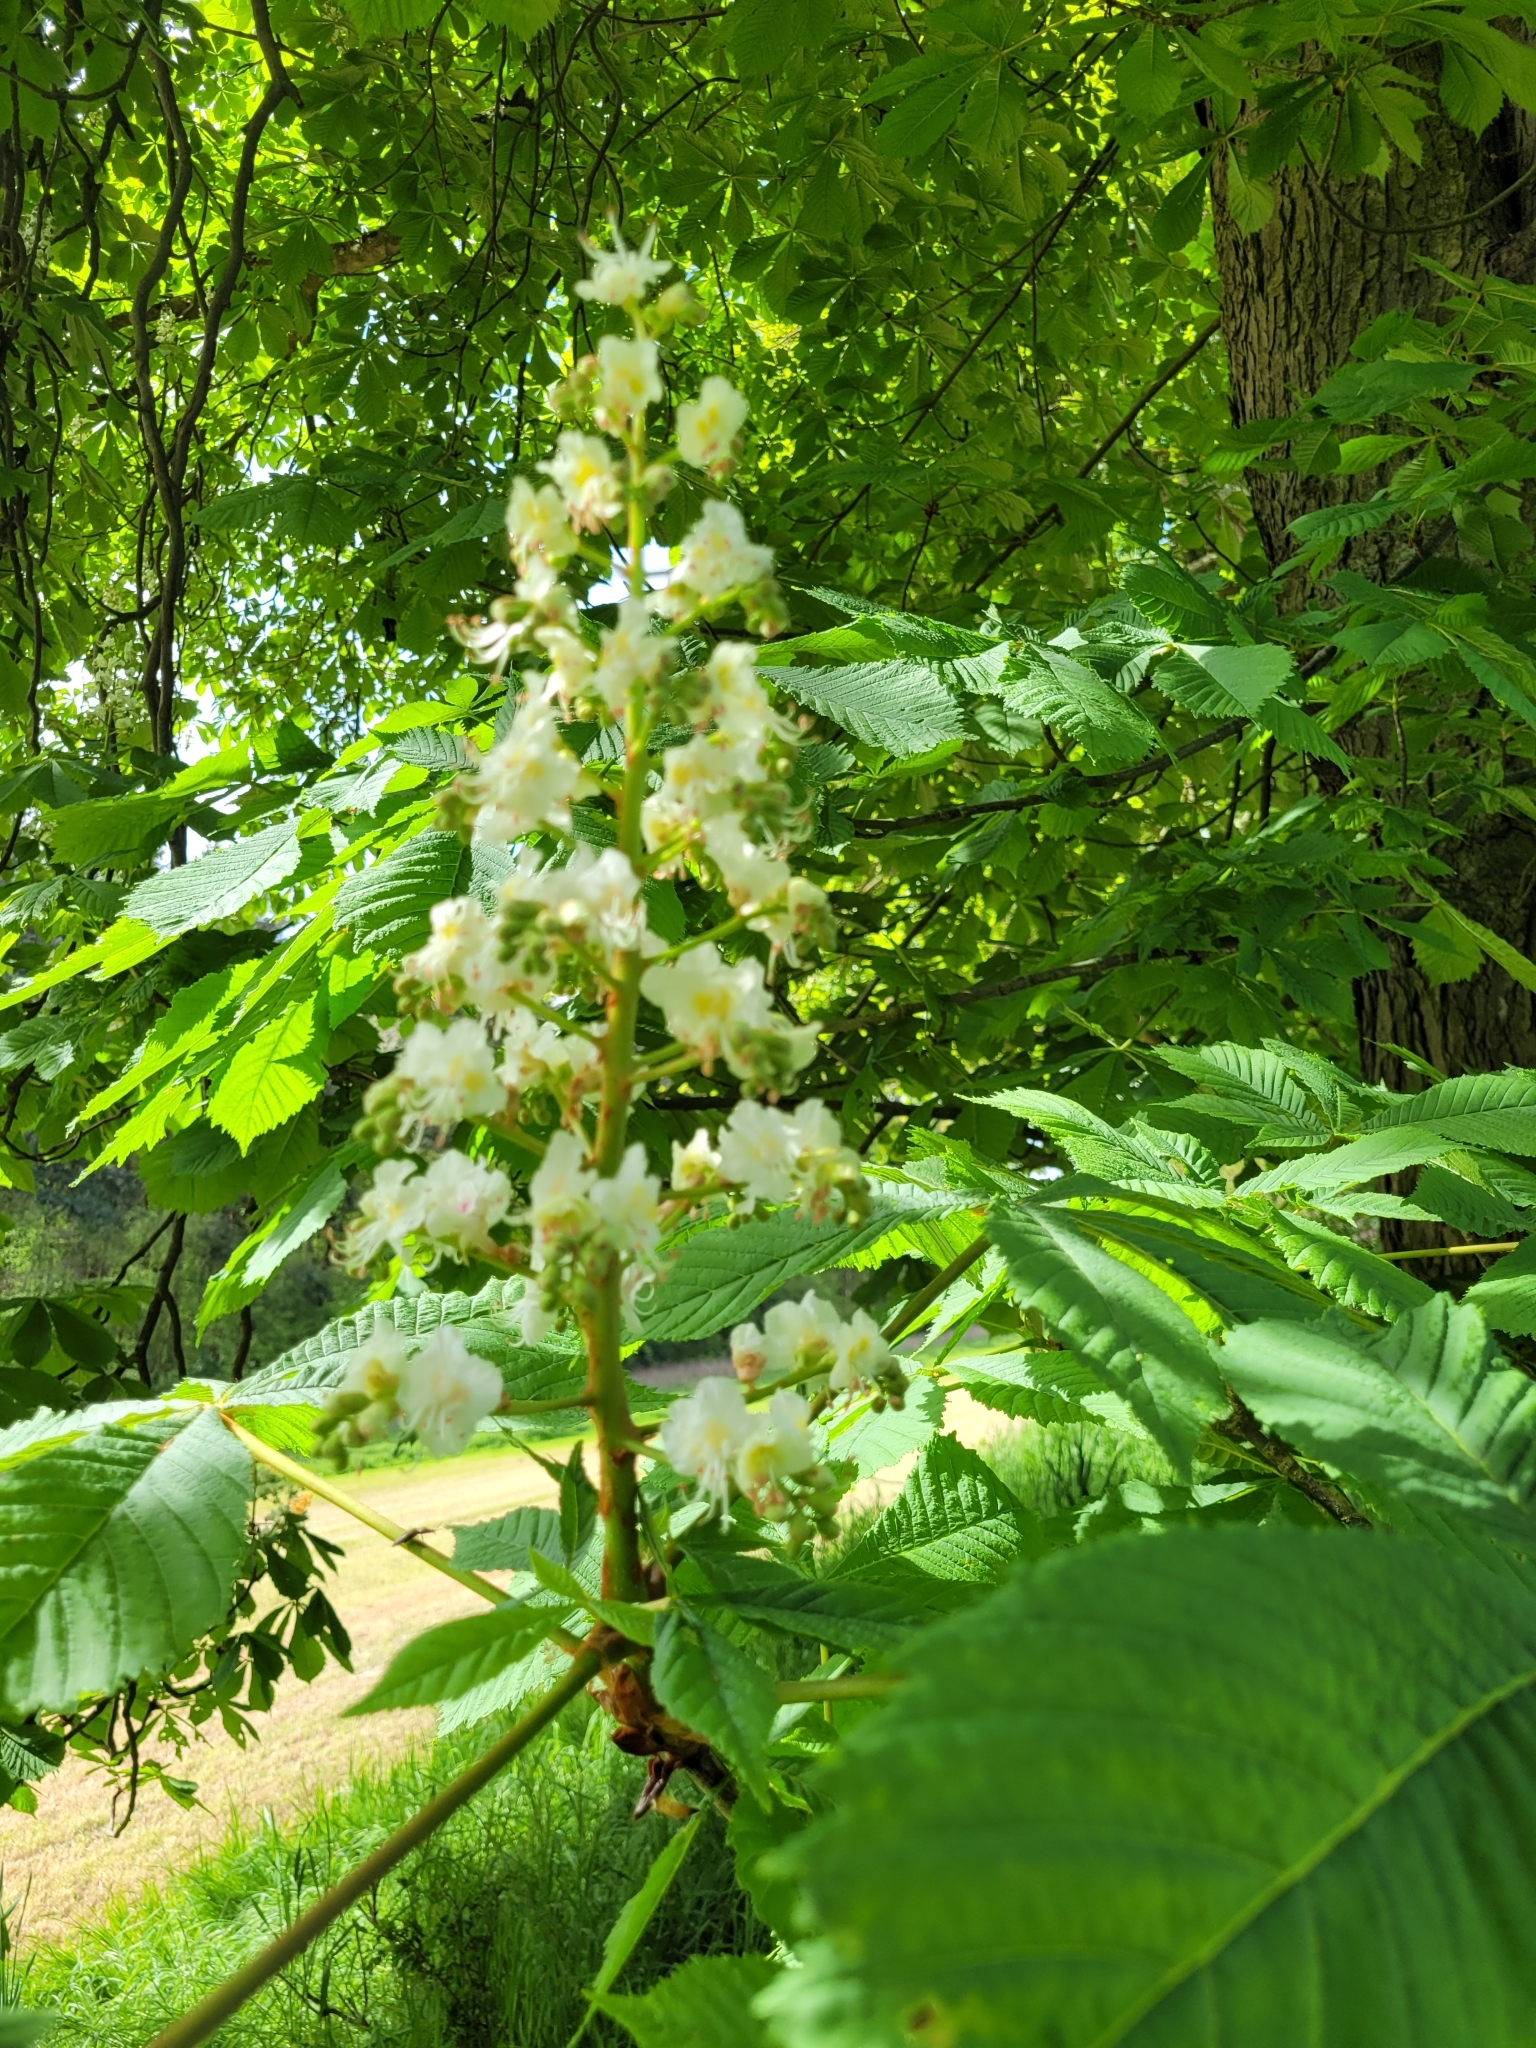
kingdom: Plantae
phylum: Tracheophyta
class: Magnoliopsida
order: Sapindales
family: Sapindaceae
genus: Aesculus
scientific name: Aesculus hippocastanum
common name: Horse-chestnut
